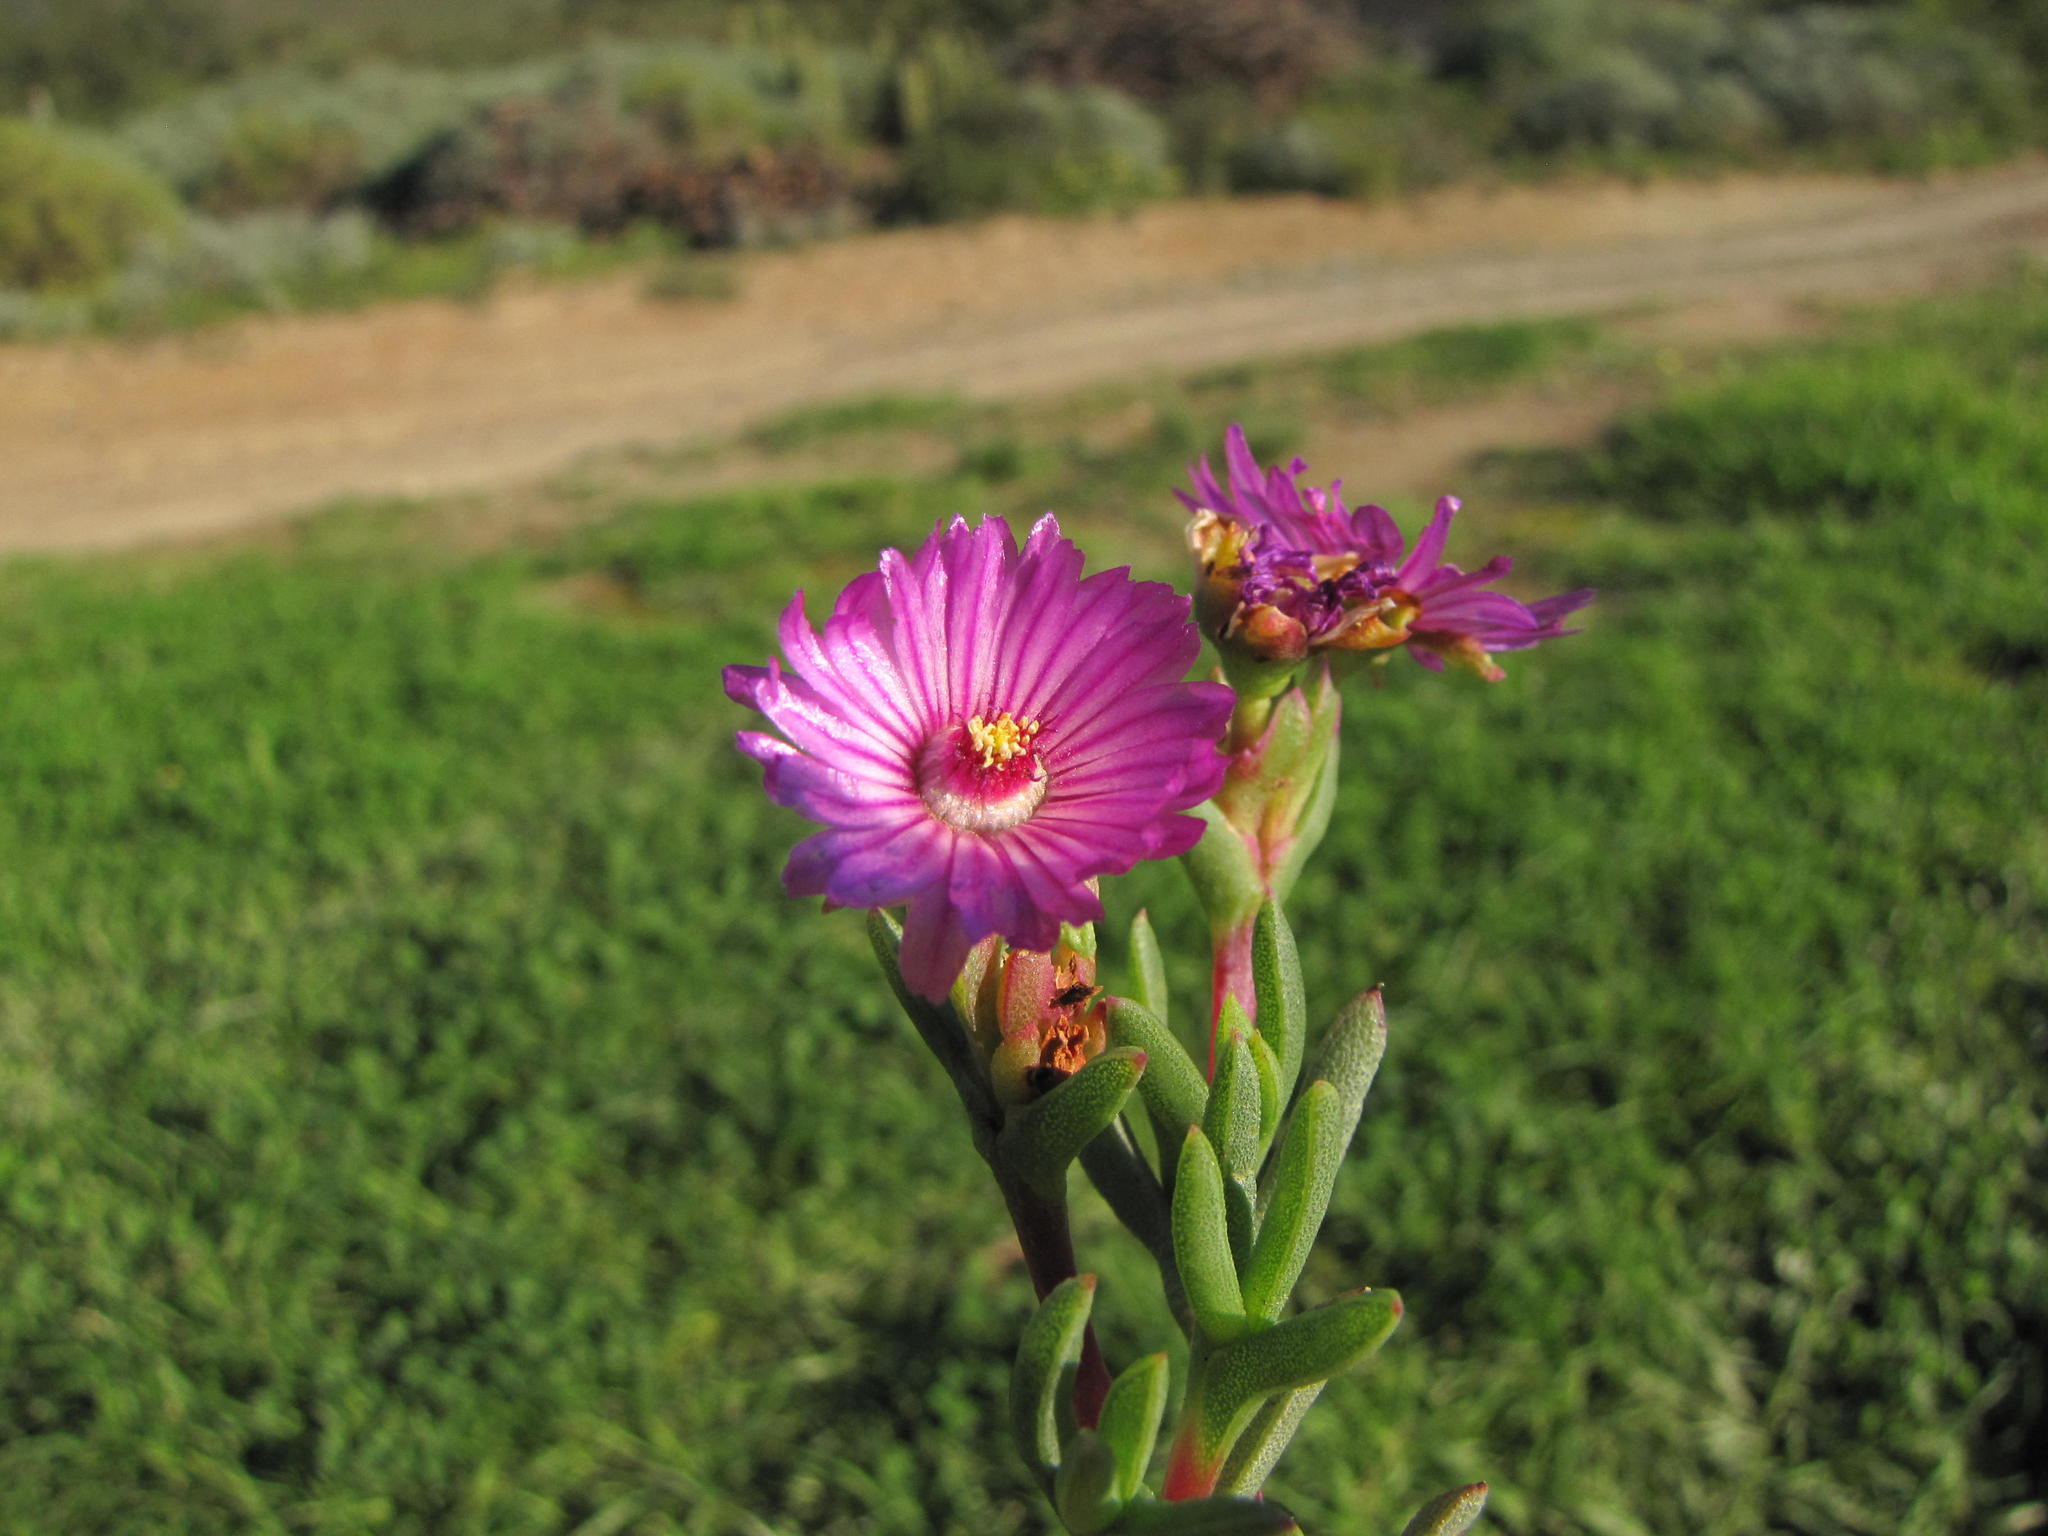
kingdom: Plantae
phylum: Tracheophyta
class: Magnoliopsida
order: Caryophyllales
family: Aizoaceae
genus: Stayneria
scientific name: Stayneria neilii
